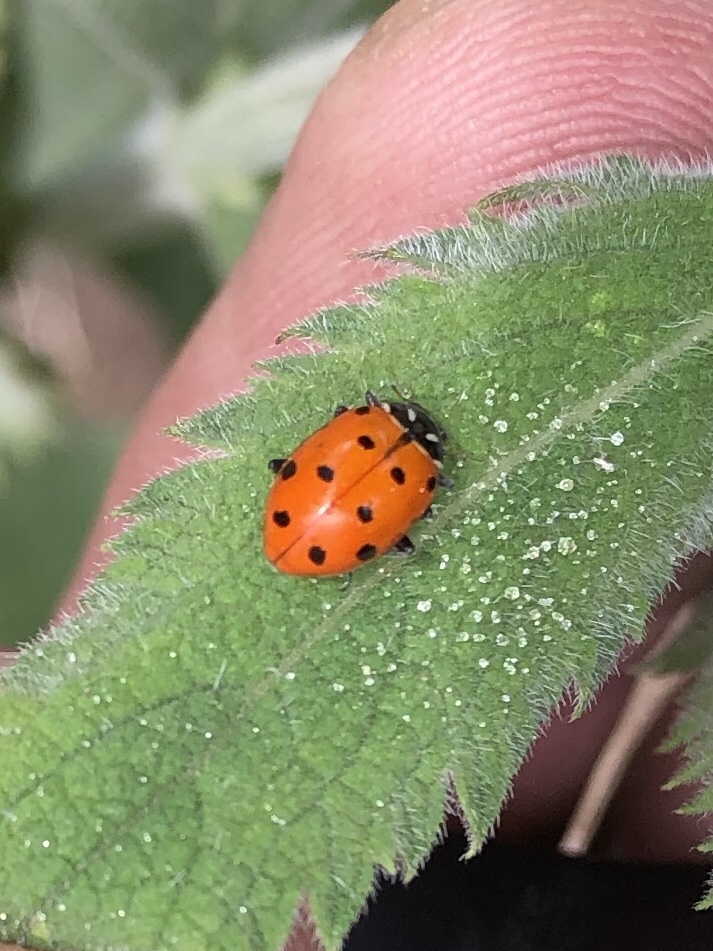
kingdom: Animalia
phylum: Arthropoda
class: Insecta
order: Coleoptera
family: Coccinellidae
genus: Hippodamia
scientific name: Hippodamia convergens
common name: Convergent lady beetle
